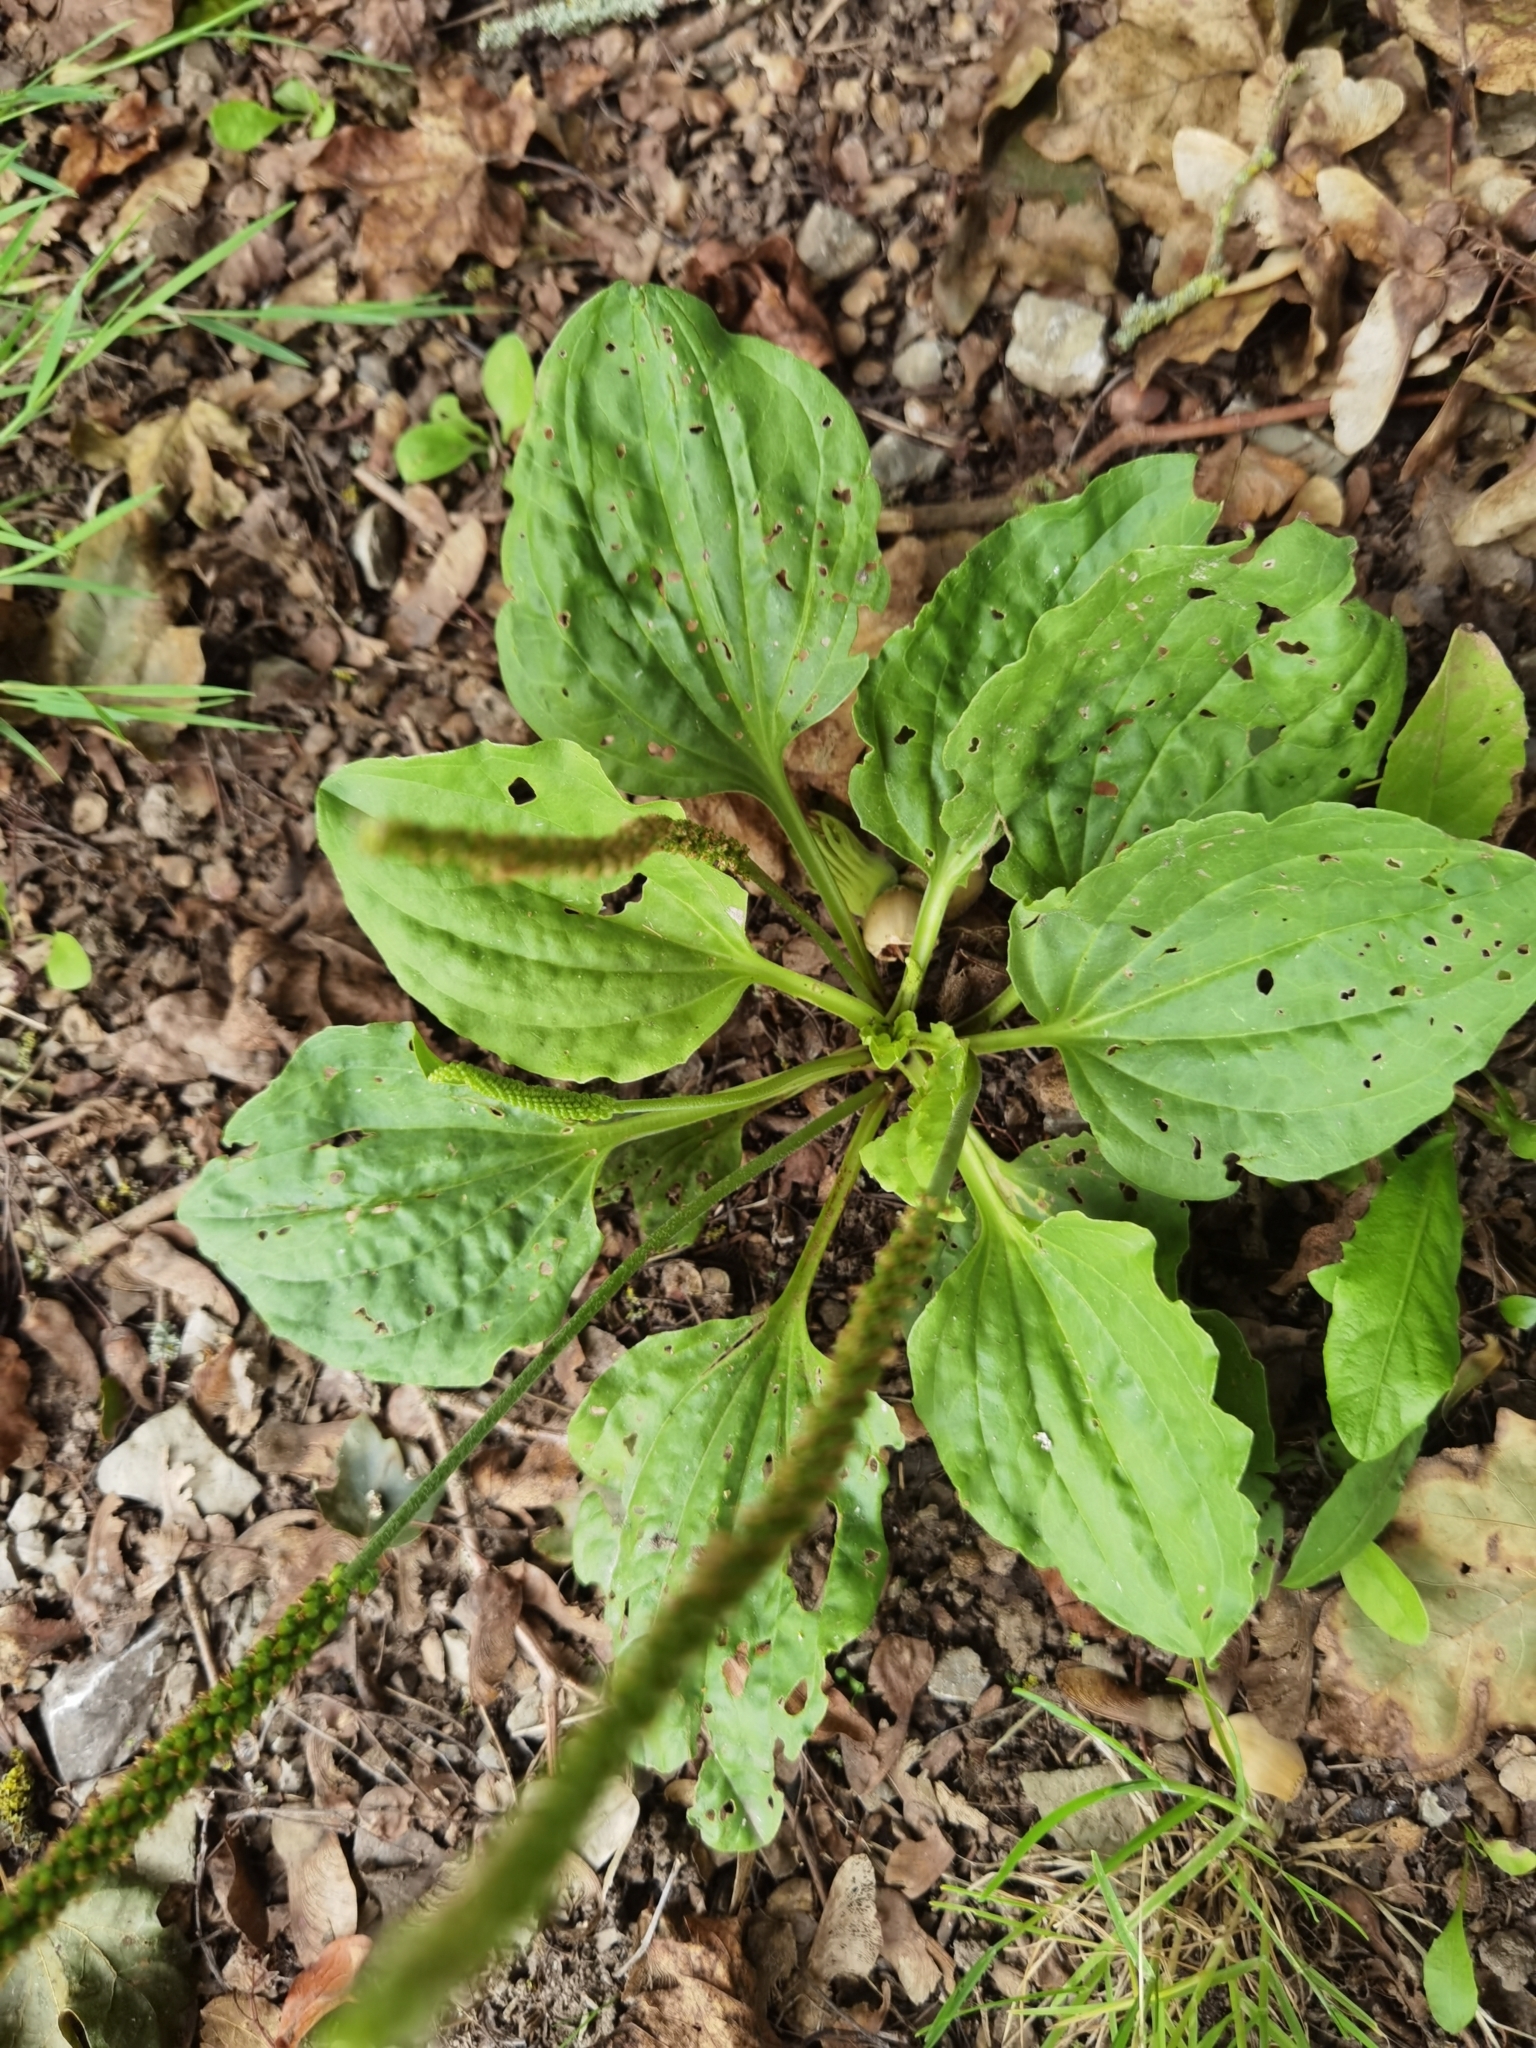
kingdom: Plantae
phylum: Tracheophyta
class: Magnoliopsida
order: Lamiales
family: Plantaginaceae
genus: Plantago
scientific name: Plantago major
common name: Common plantain
